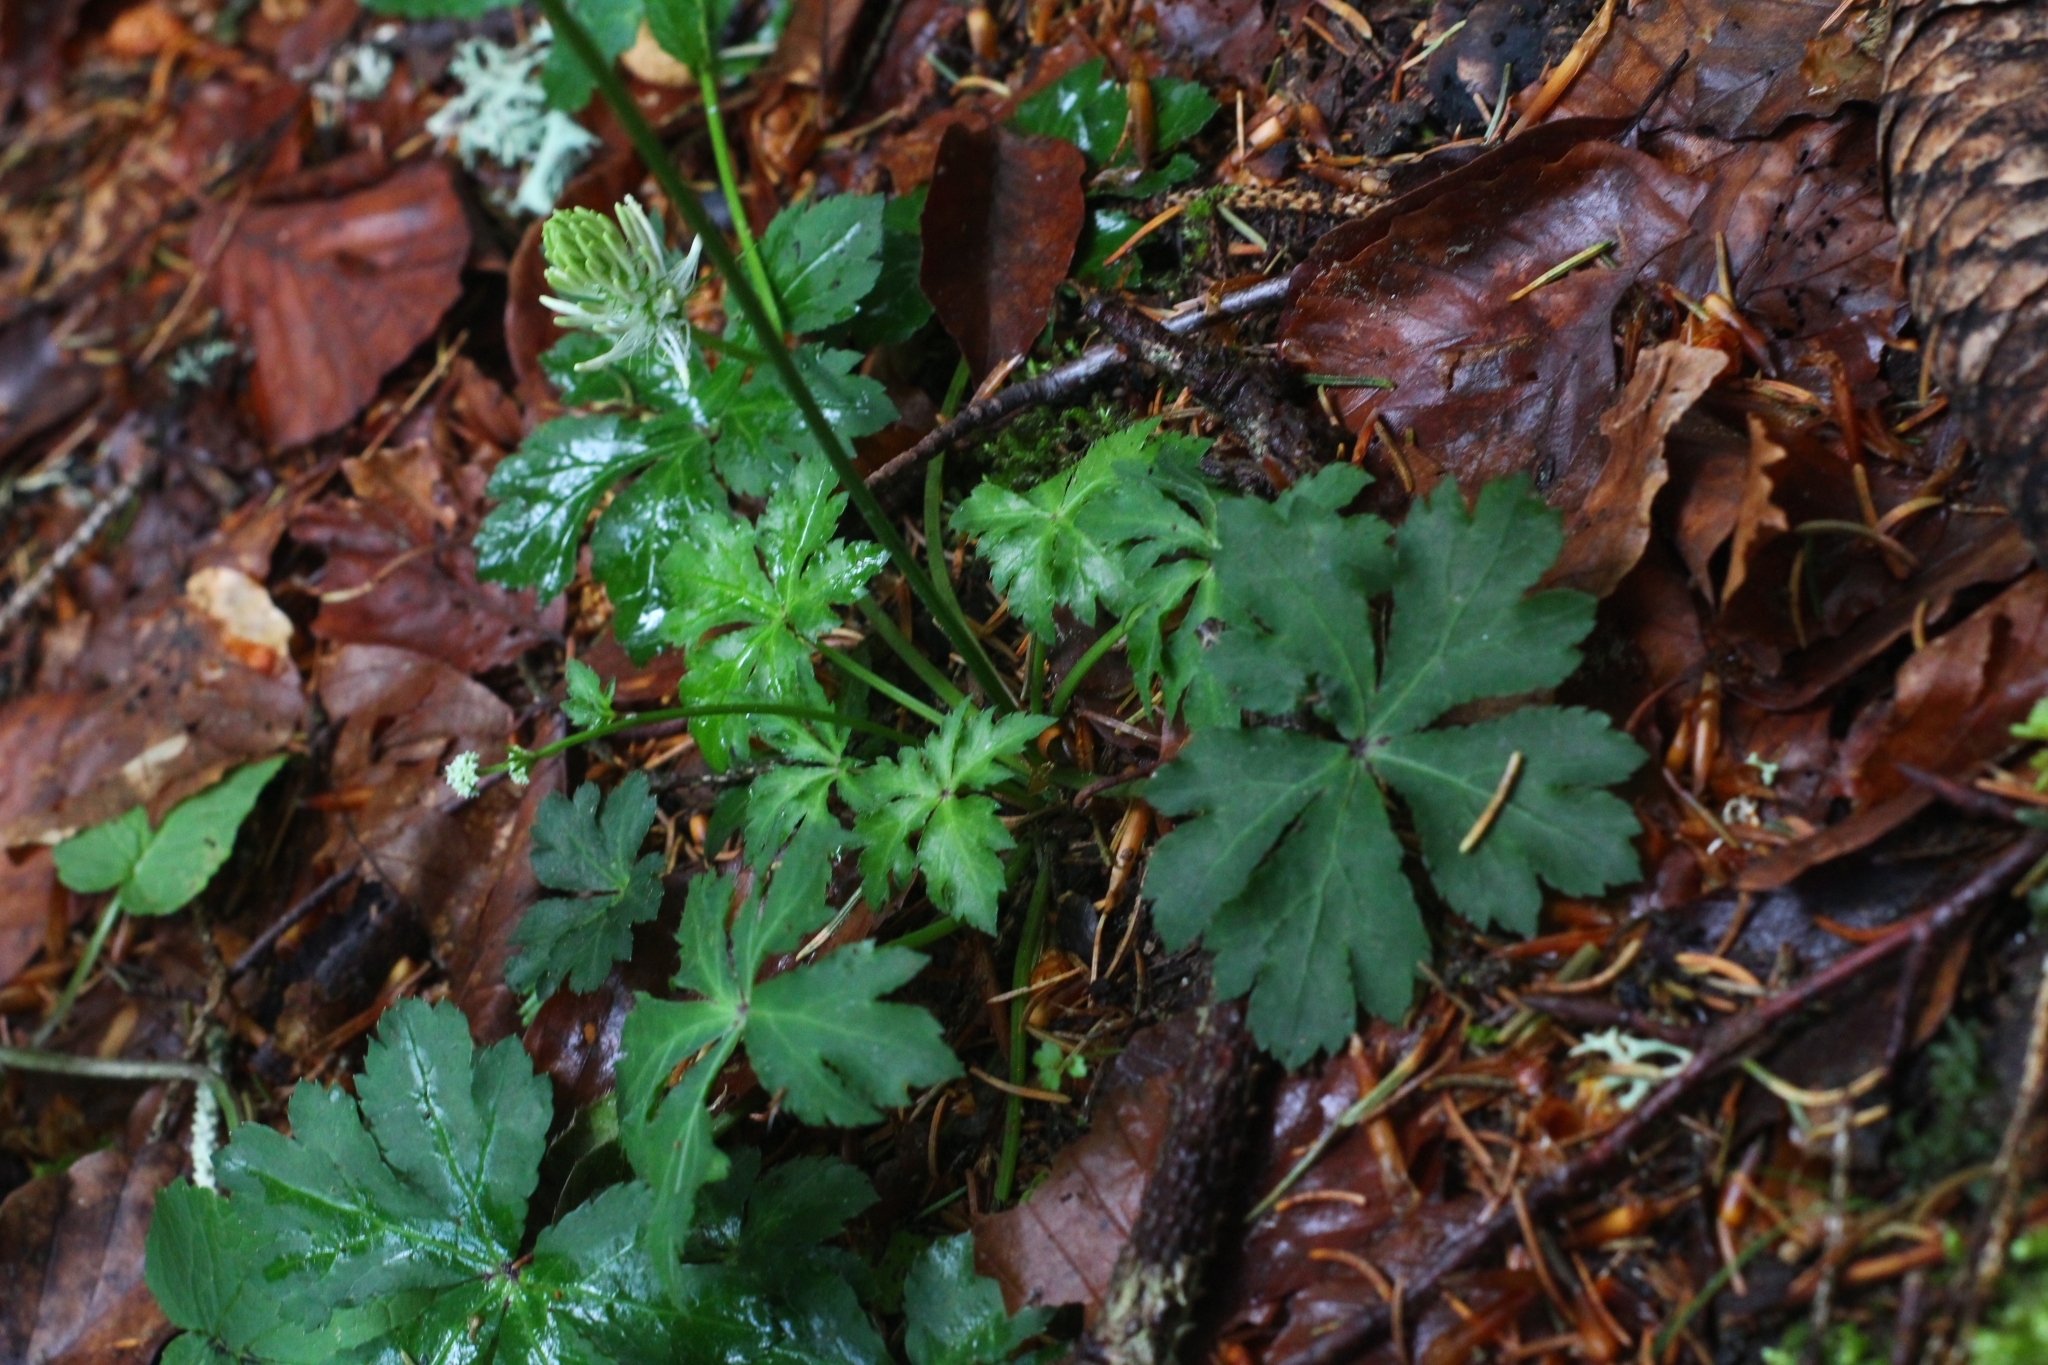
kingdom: Plantae
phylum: Tracheophyta
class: Magnoliopsida
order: Apiales
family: Apiaceae
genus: Sanicula
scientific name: Sanicula europaea
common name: Sanicle
